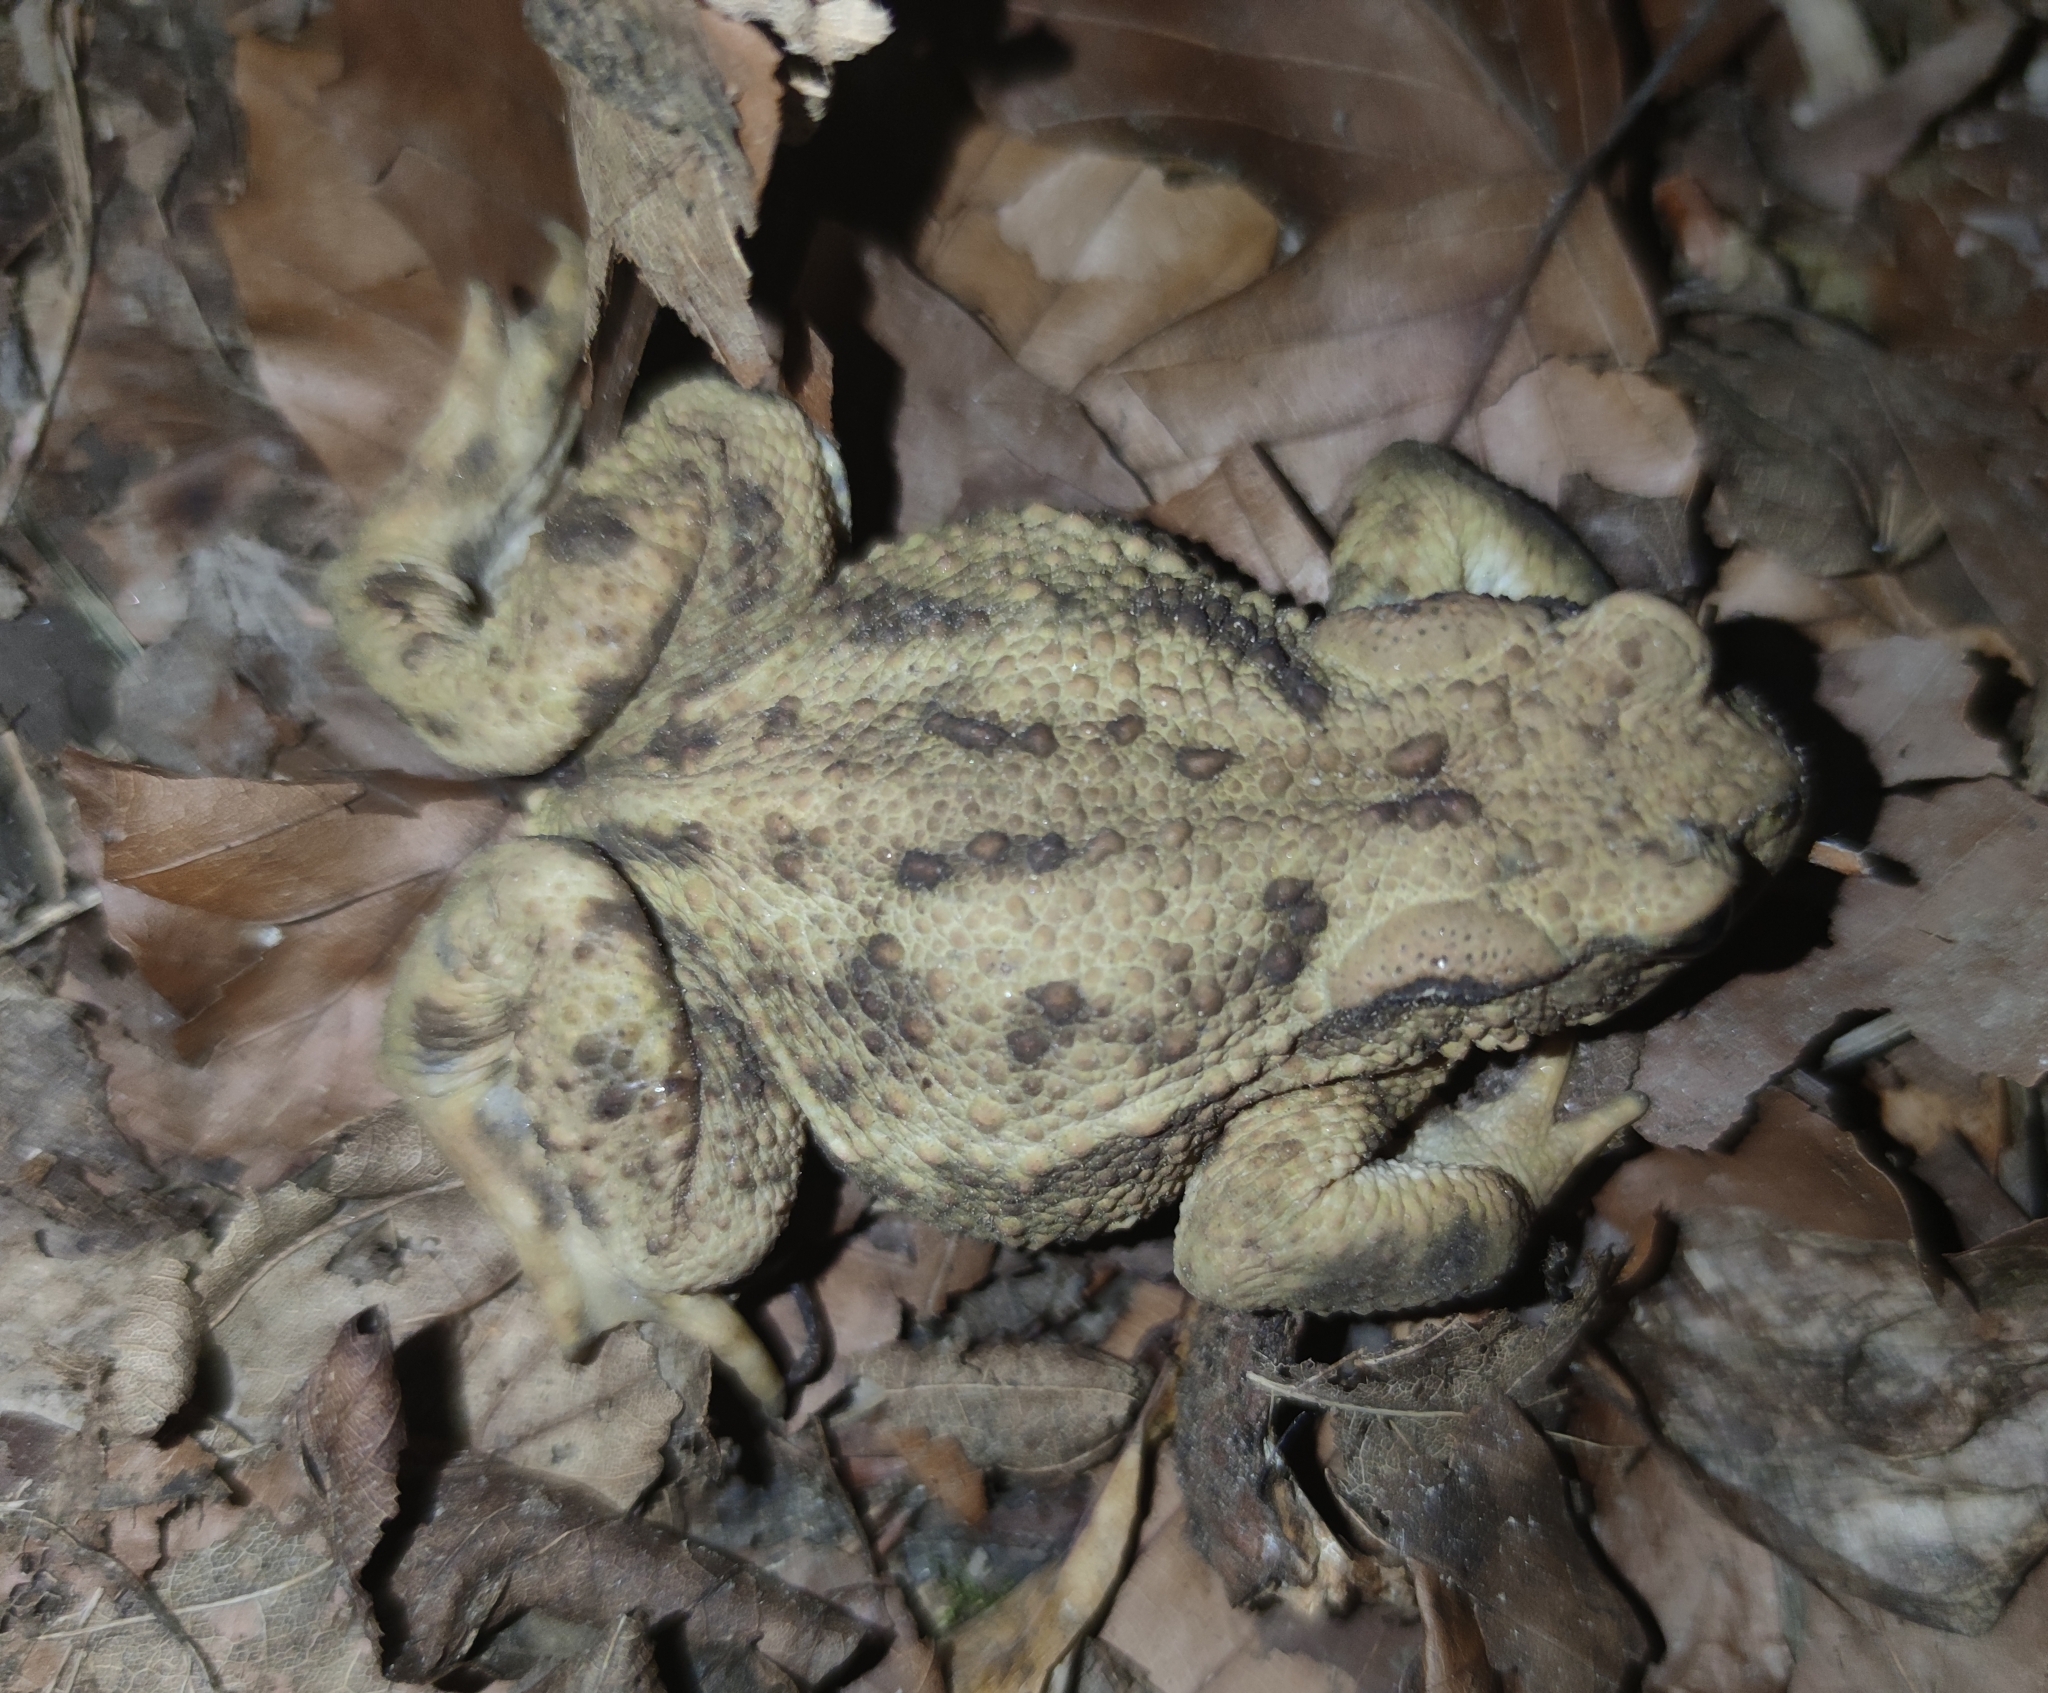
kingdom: Animalia
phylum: Chordata
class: Amphibia
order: Anura
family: Bufonidae
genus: Bufo
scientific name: Bufo bufo
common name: Common toad
